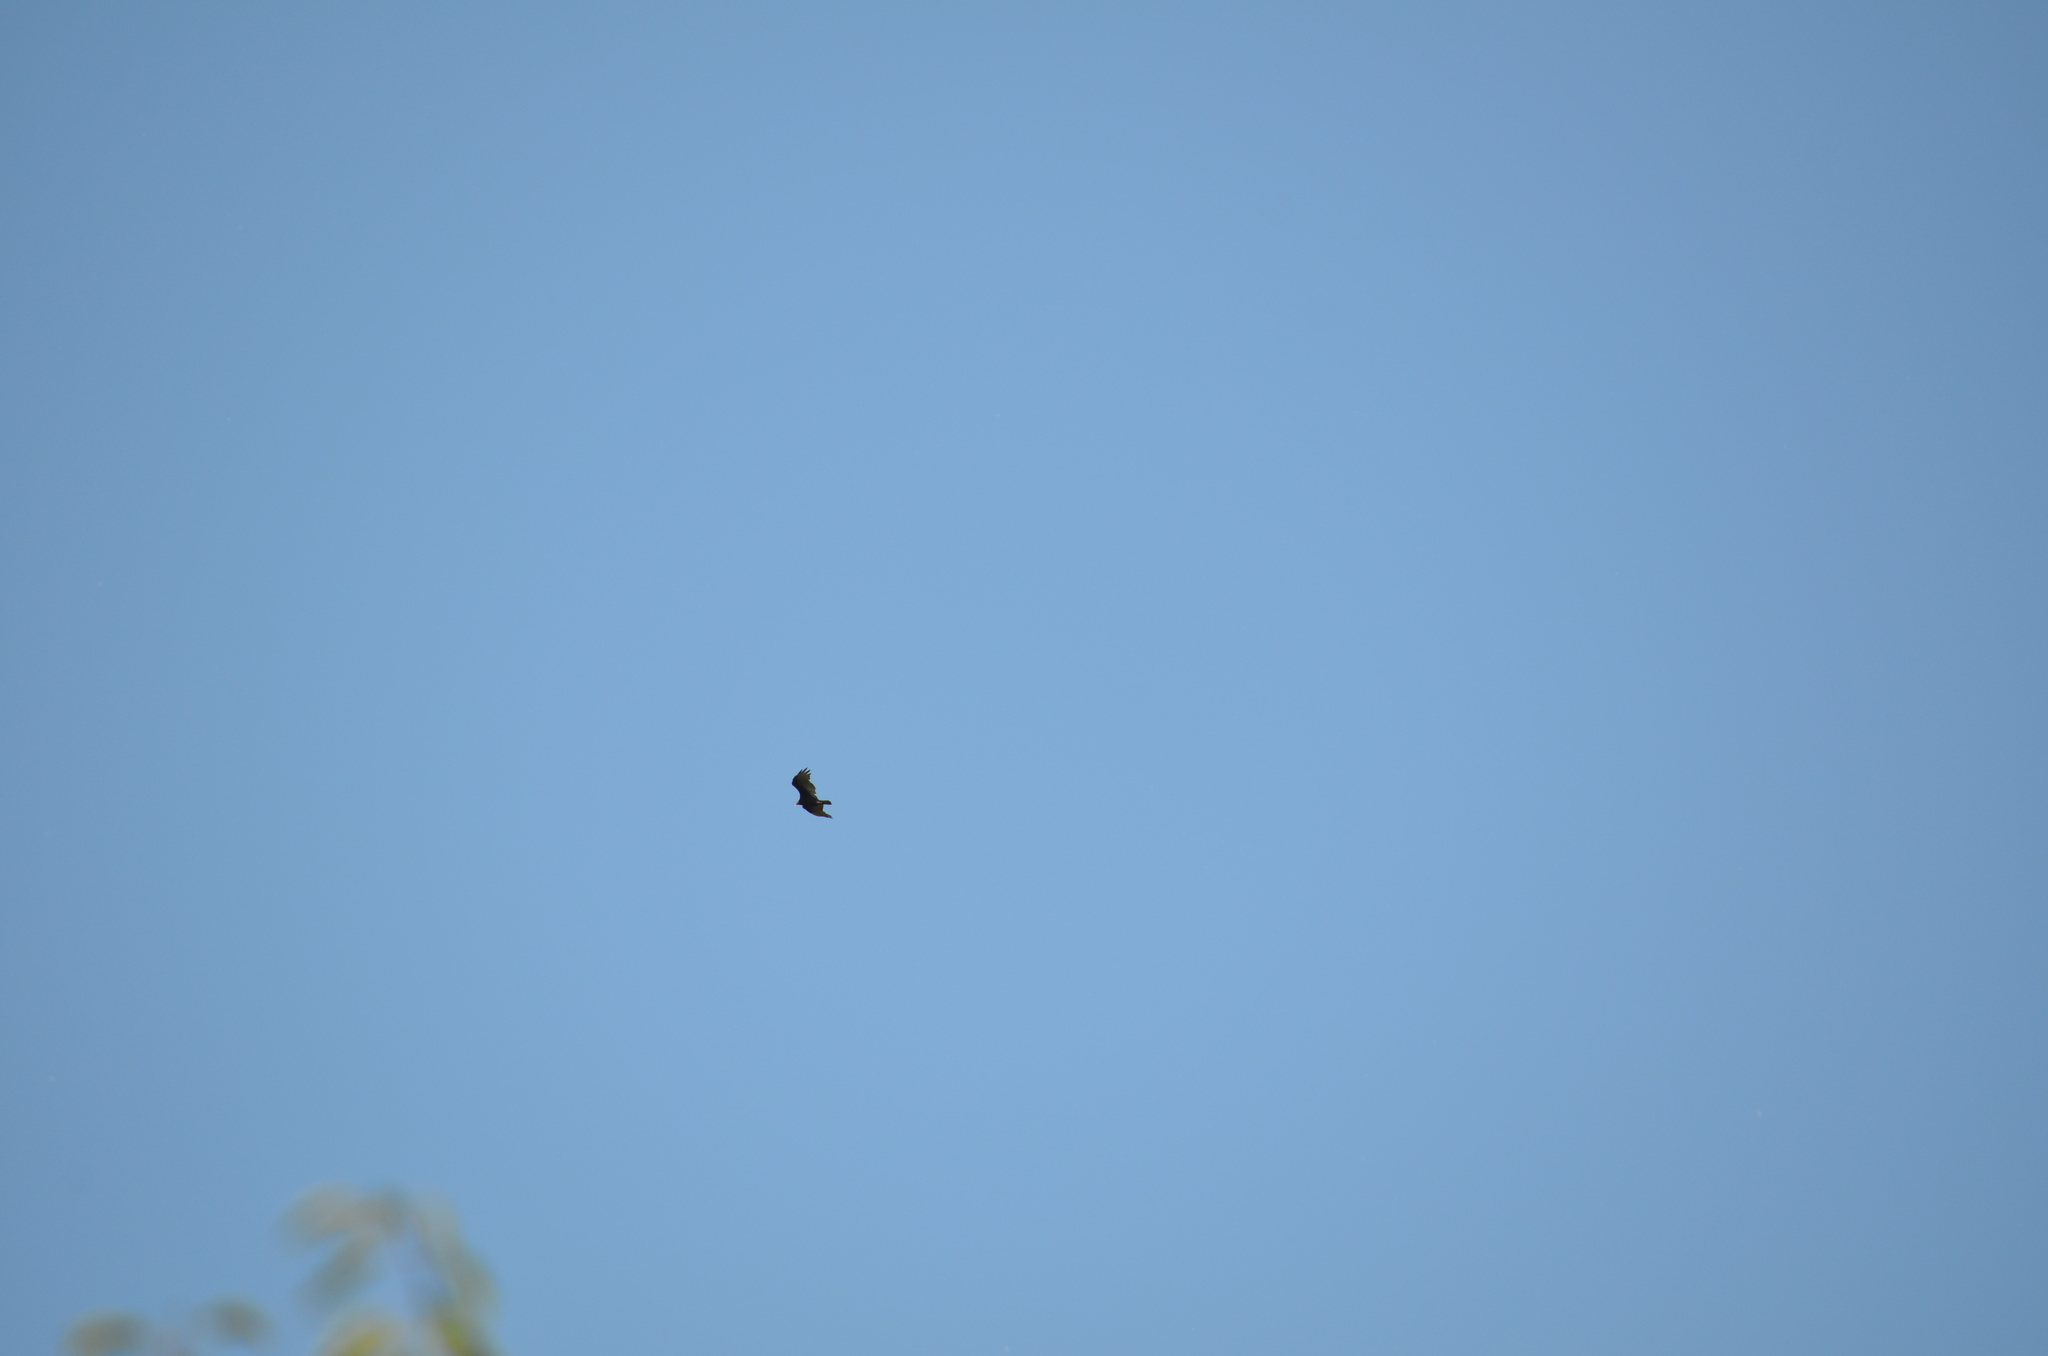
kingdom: Animalia
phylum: Chordata
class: Aves
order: Accipitriformes
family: Cathartidae
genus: Cathartes
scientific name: Cathartes aura
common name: Turkey vulture
